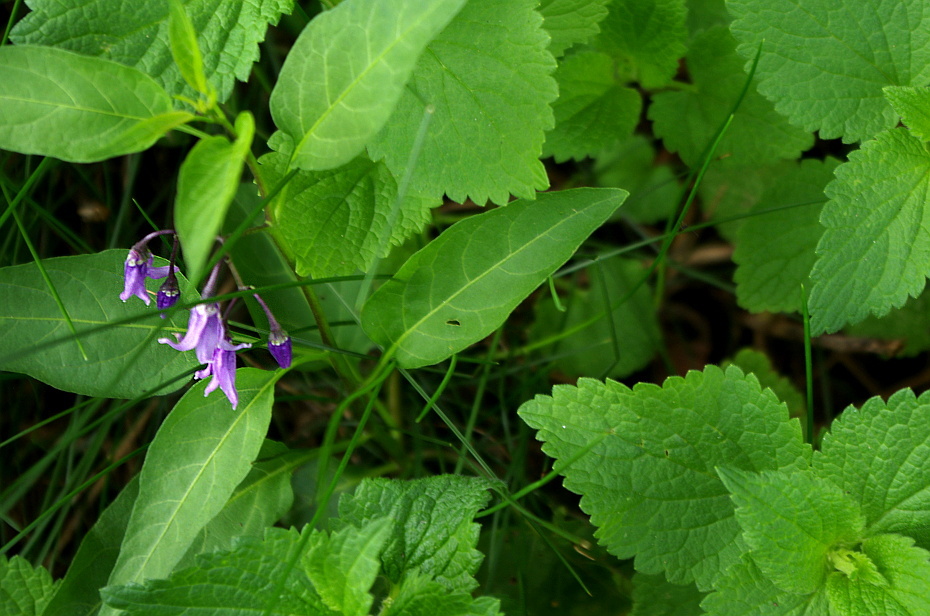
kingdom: Plantae
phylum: Tracheophyta
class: Magnoliopsida
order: Solanales
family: Solanaceae
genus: Solanum
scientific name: Solanum dulcamara
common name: Climbing nightshade
